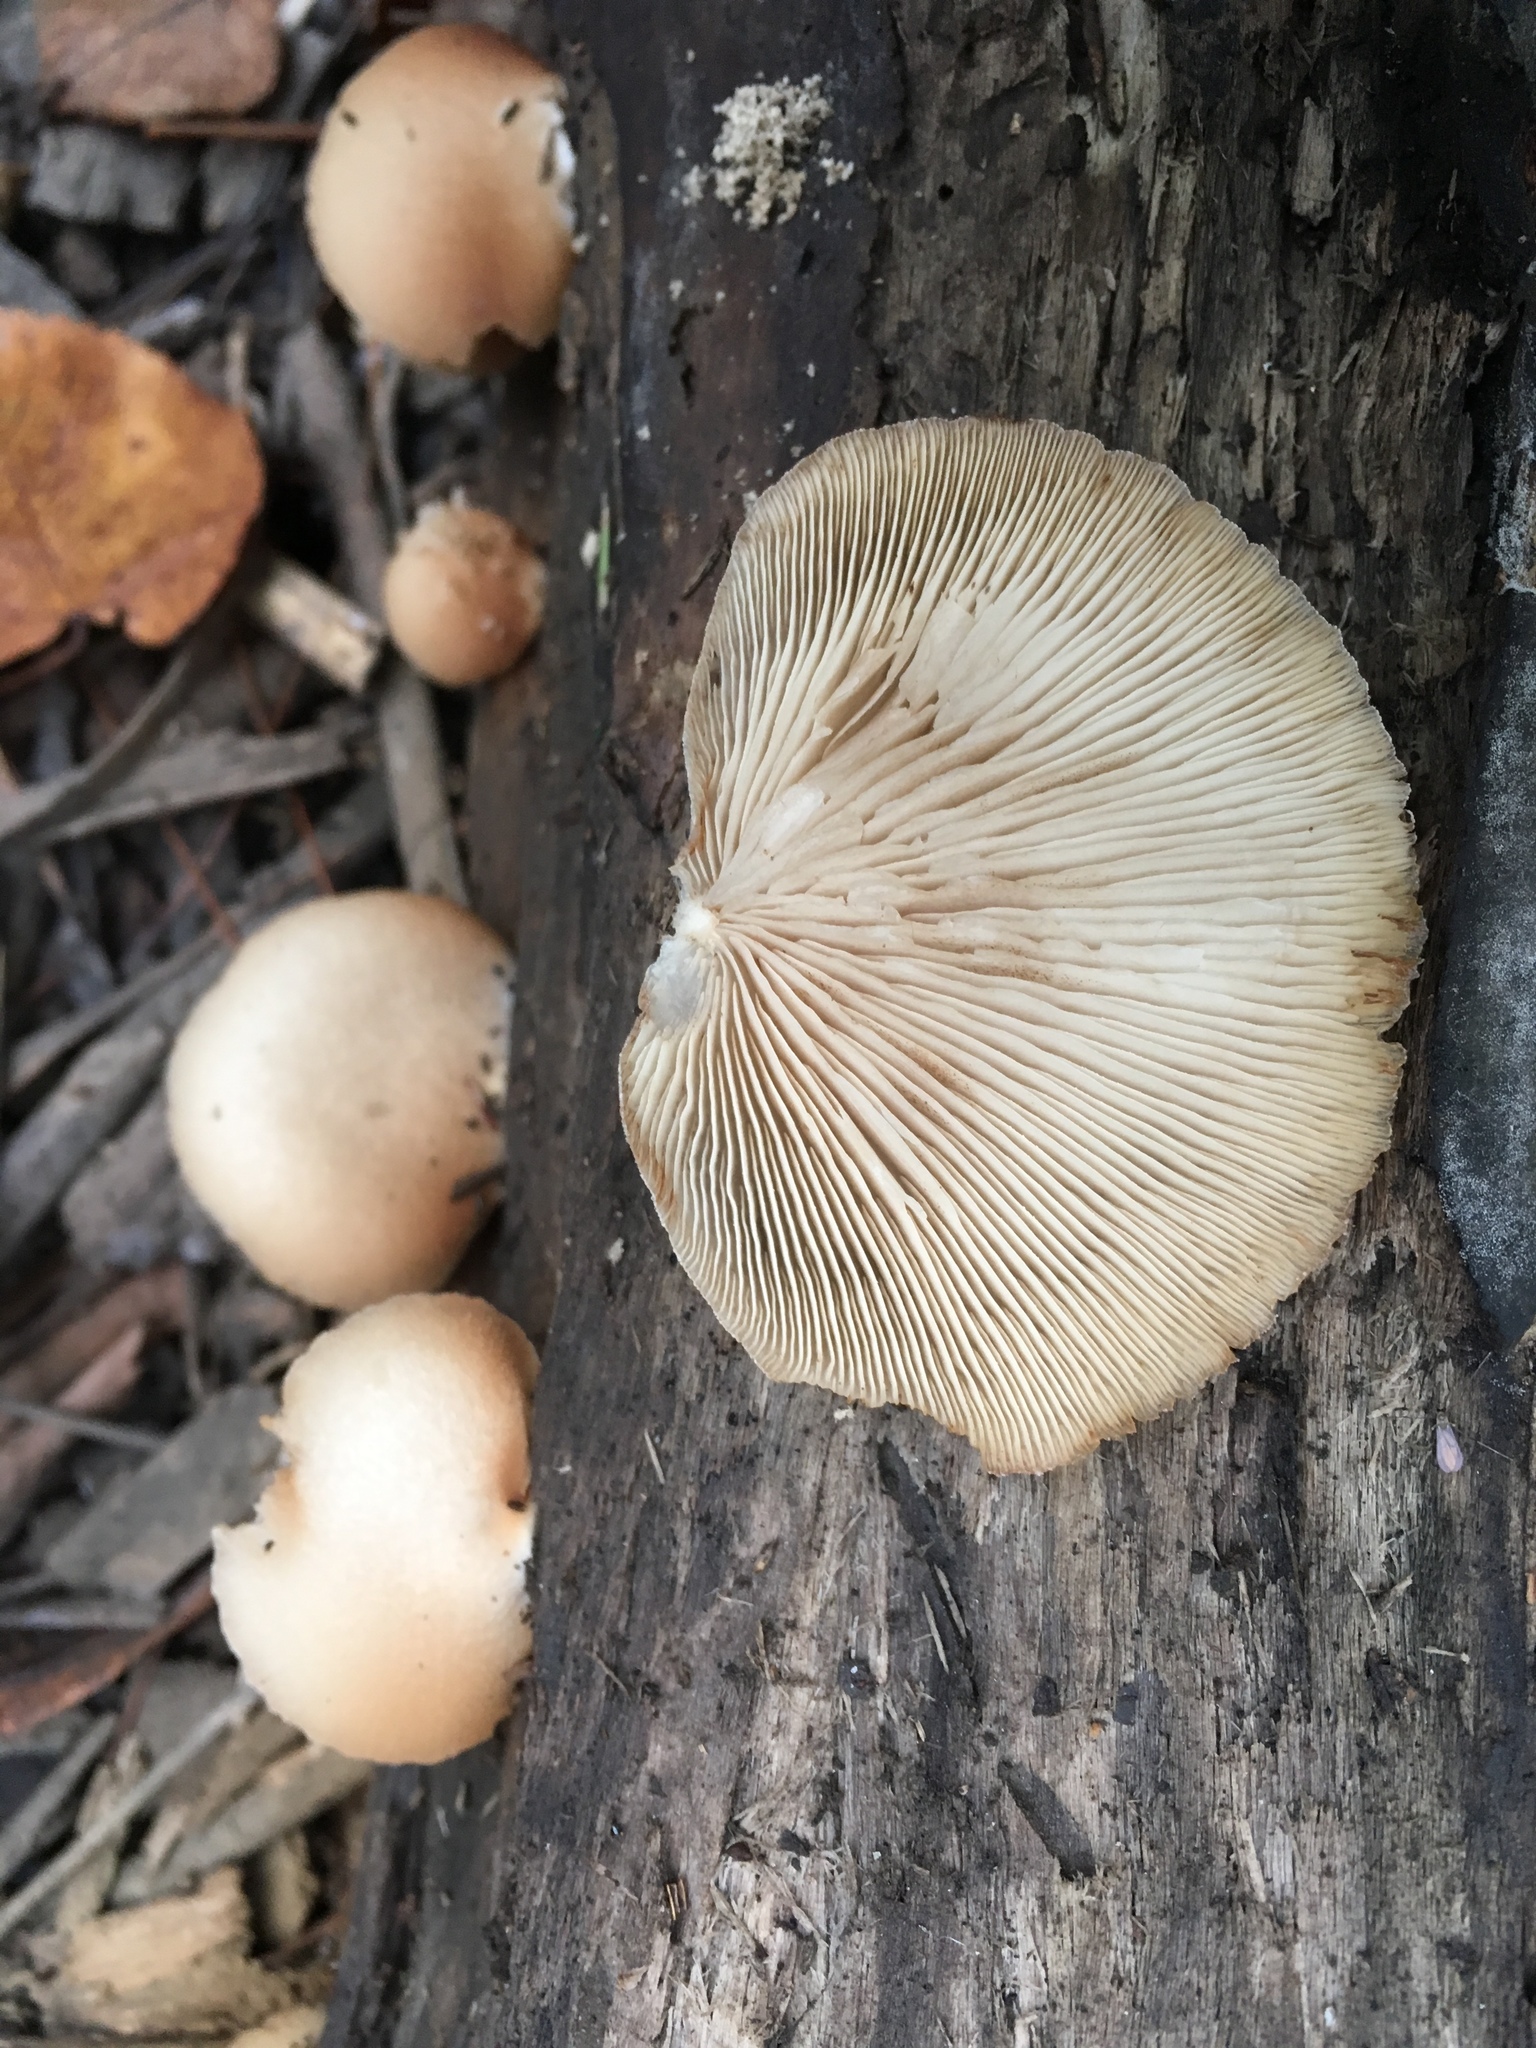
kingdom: Fungi
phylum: Basidiomycota
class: Agaricomycetes
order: Agaricales
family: Crepidotaceae
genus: Crepidotus
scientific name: Crepidotus mollis
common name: Peeling oysterling
